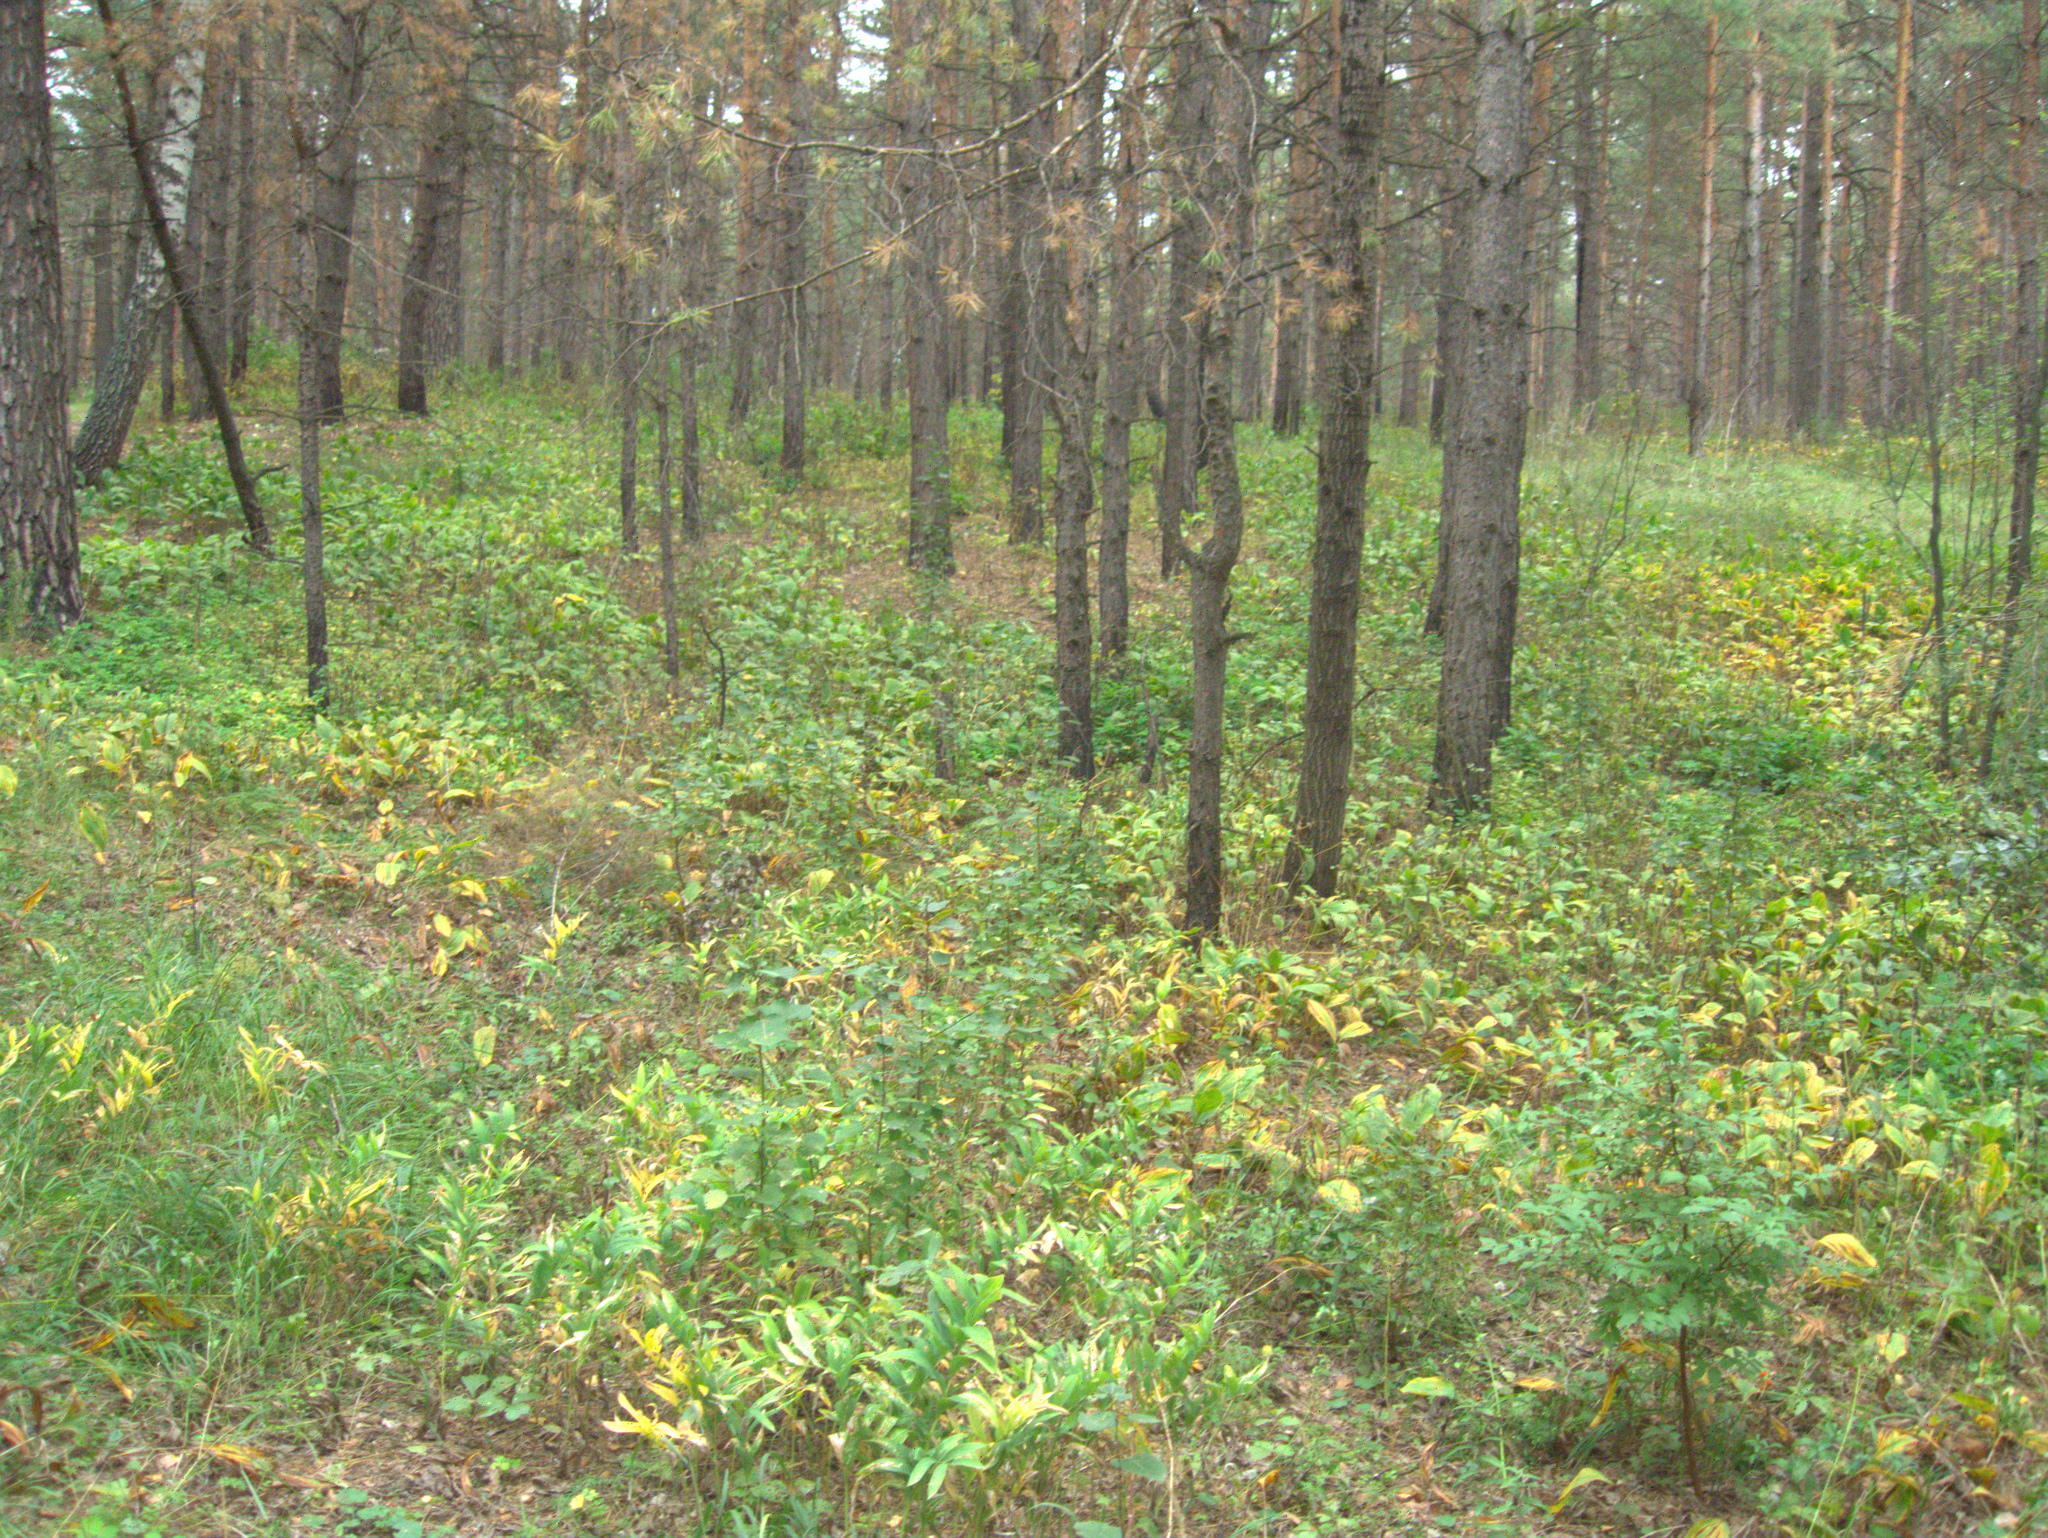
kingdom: Plantae
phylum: Tracheophyta
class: Magnoliopsida
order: Rosales
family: Ulmaceae
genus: Ulmus
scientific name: Ulmus pumila
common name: Siberian elm
